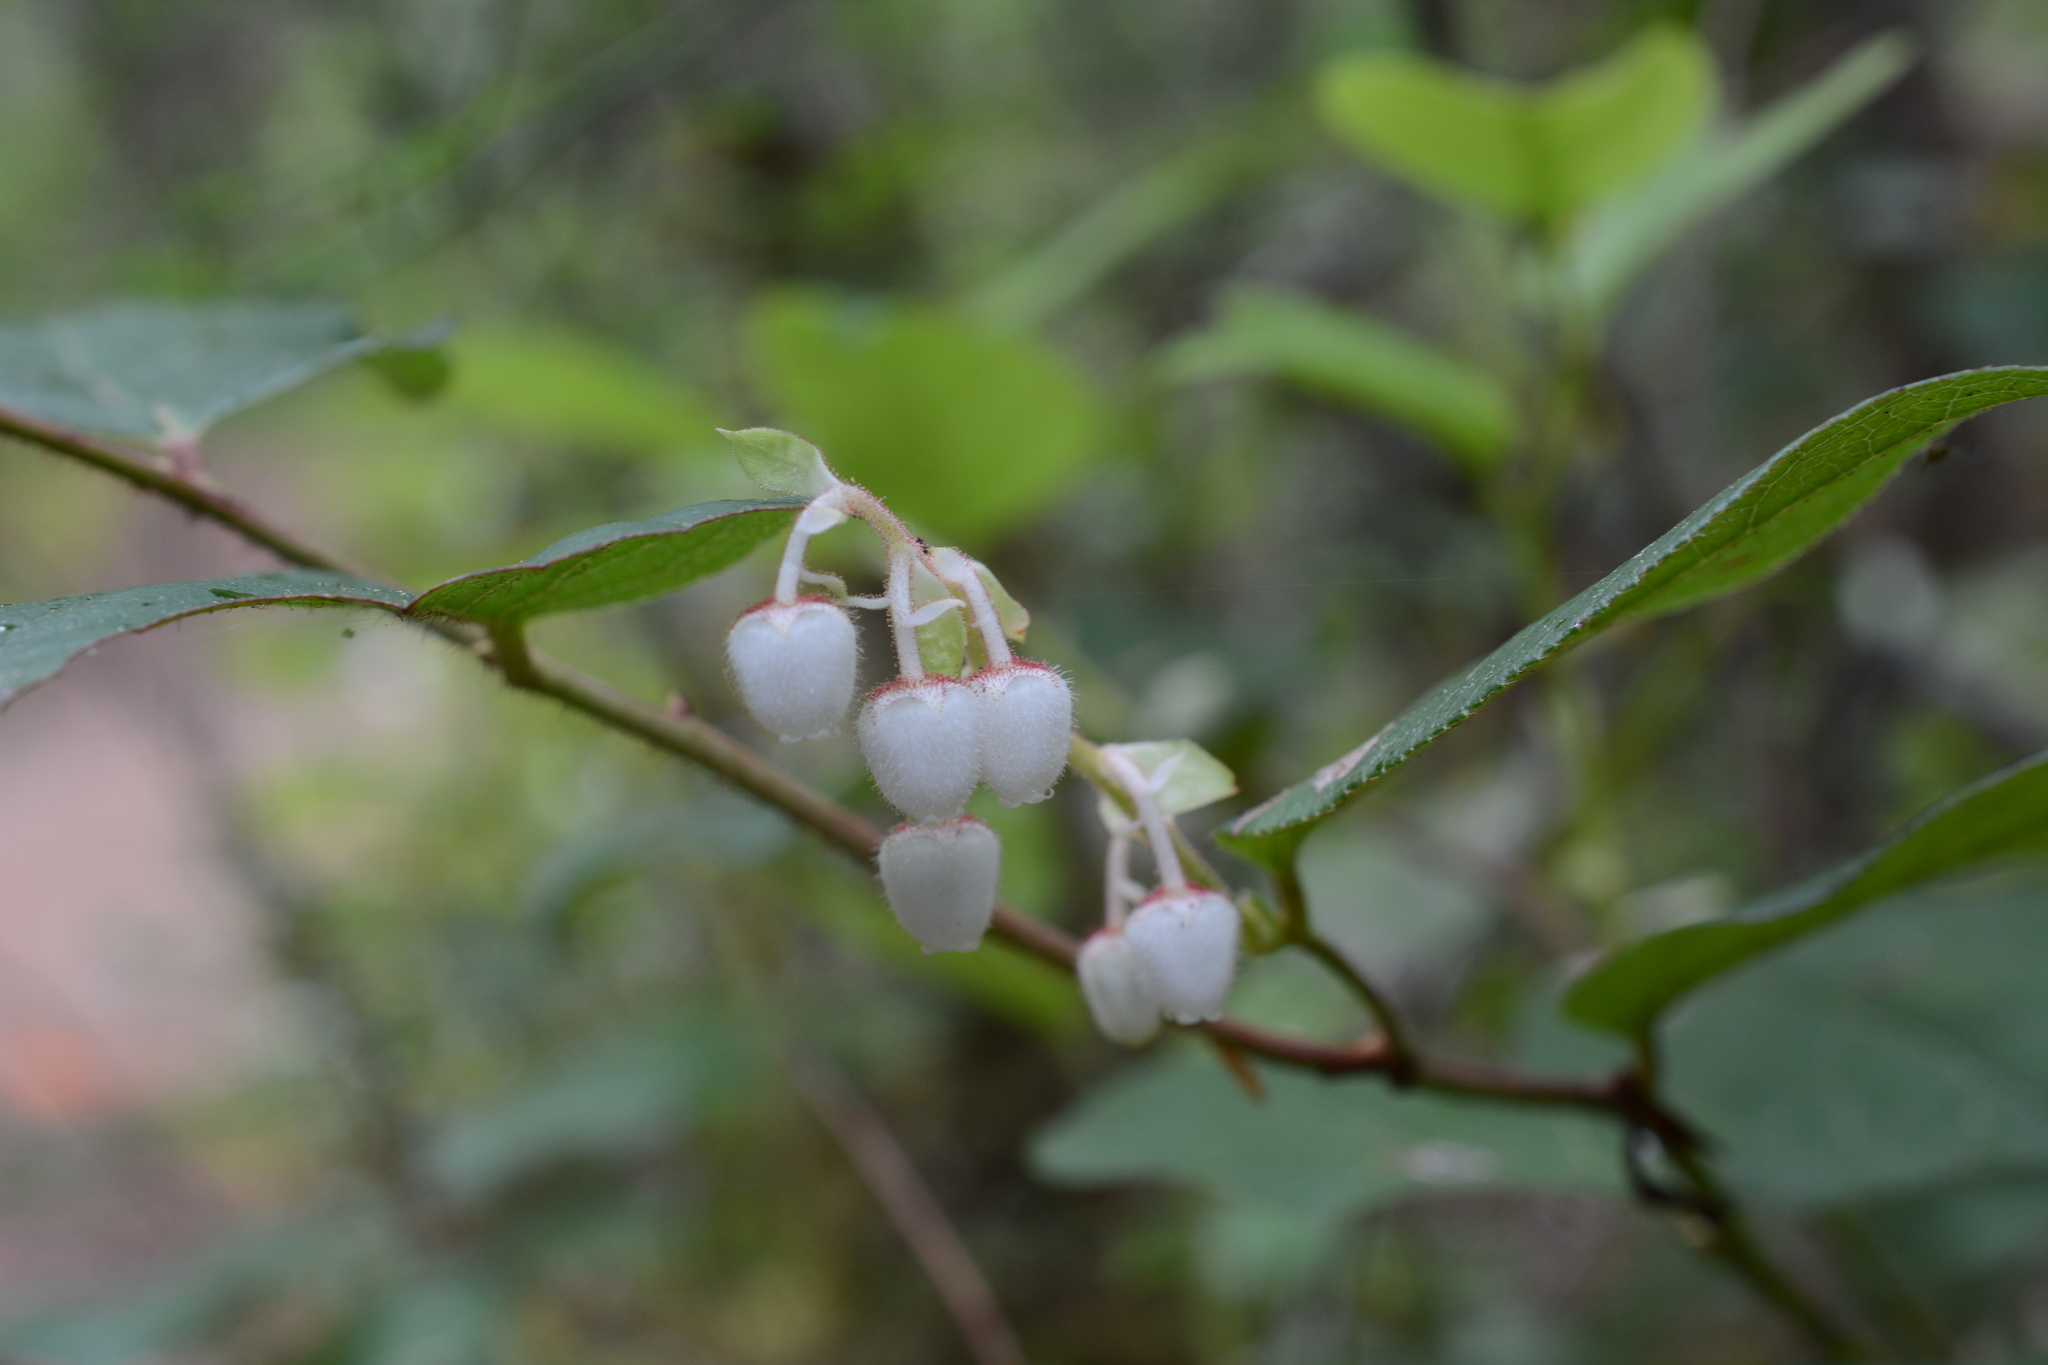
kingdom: Plantae
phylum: Tracheophyta
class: Magnoliopsida
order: Ericales
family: Ericaceae
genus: Gaultheria
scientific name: Gaultheria shallon
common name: Shallon
